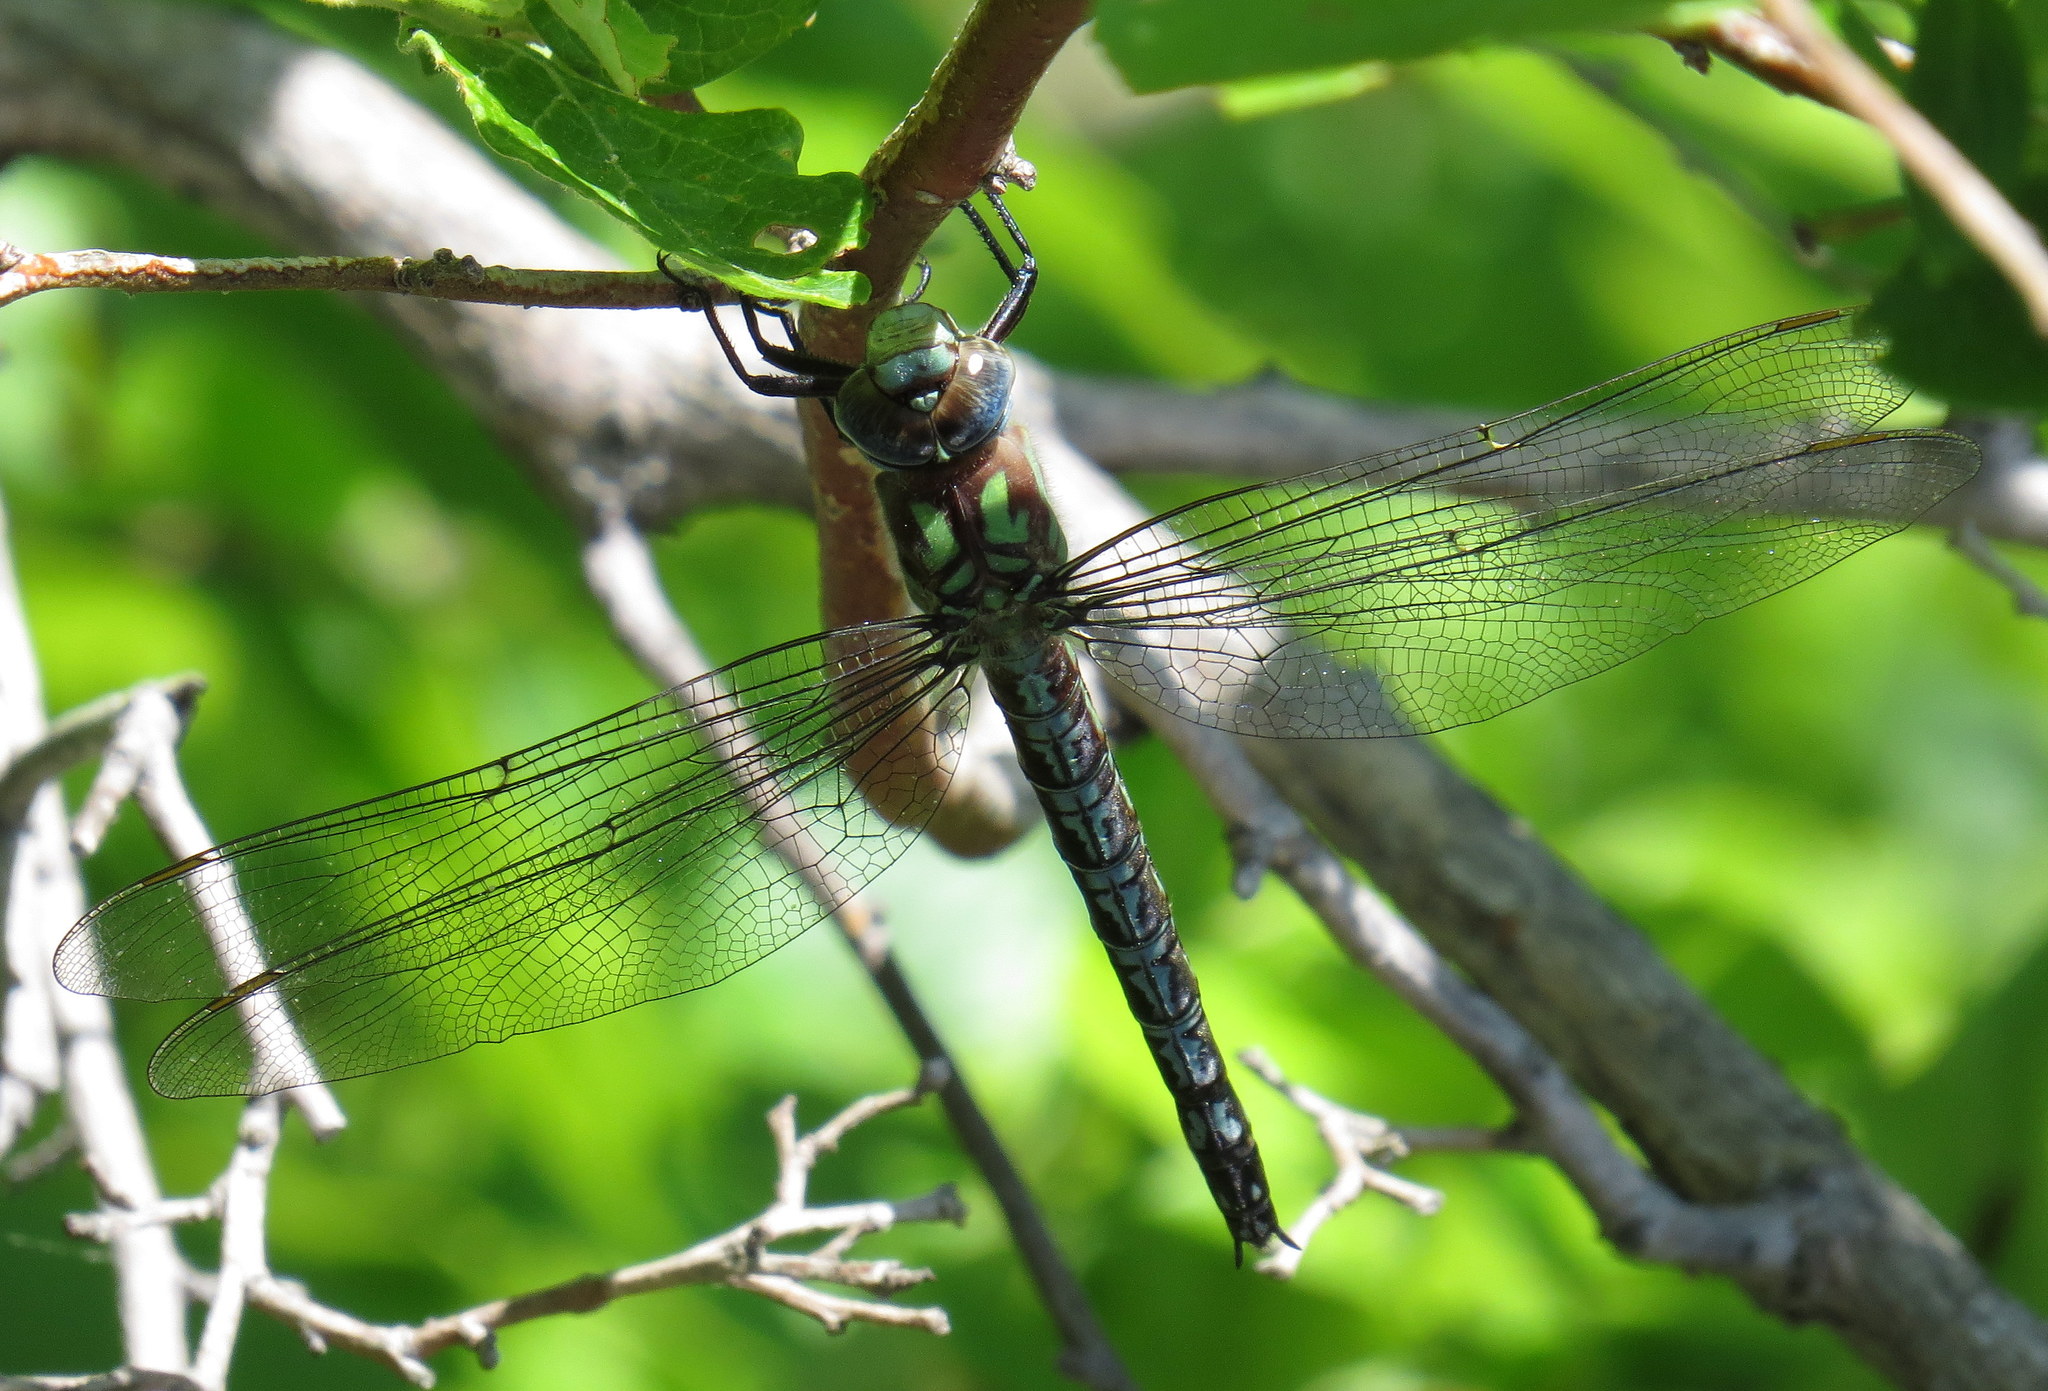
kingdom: Animalia
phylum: Arthropoda
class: Insecta
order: Odonata
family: Aeshnidae
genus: Nasiaeschna
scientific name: Nasiaeschna pentacantha
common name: Cyrano darner
